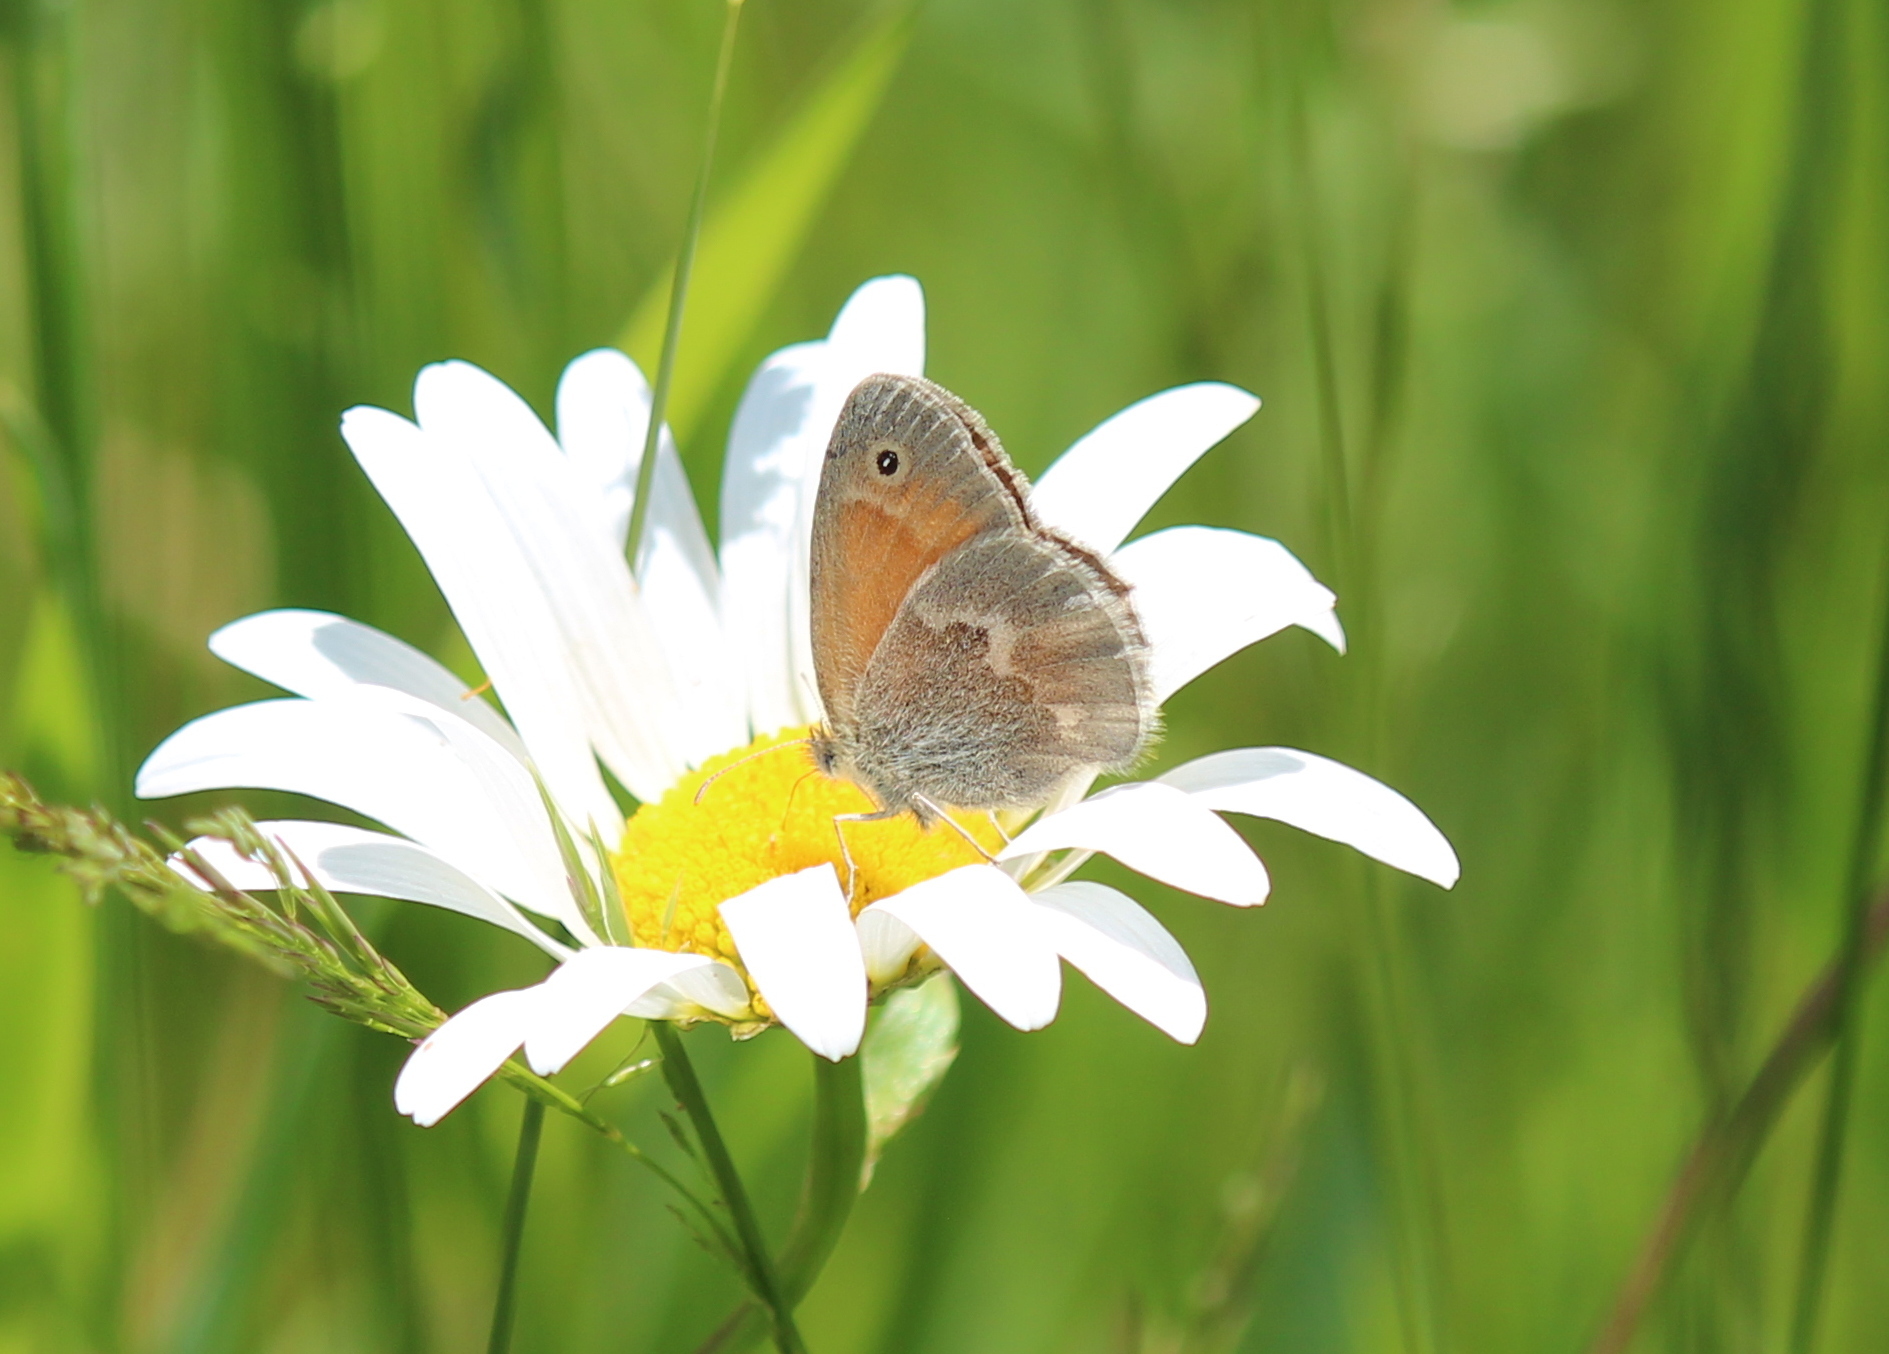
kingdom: Animalia
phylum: Arthropoda
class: Insecta
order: Lepidoptera
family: Nymphalidae
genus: Coenonympha
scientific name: Coenonympha california
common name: Common ringlet
